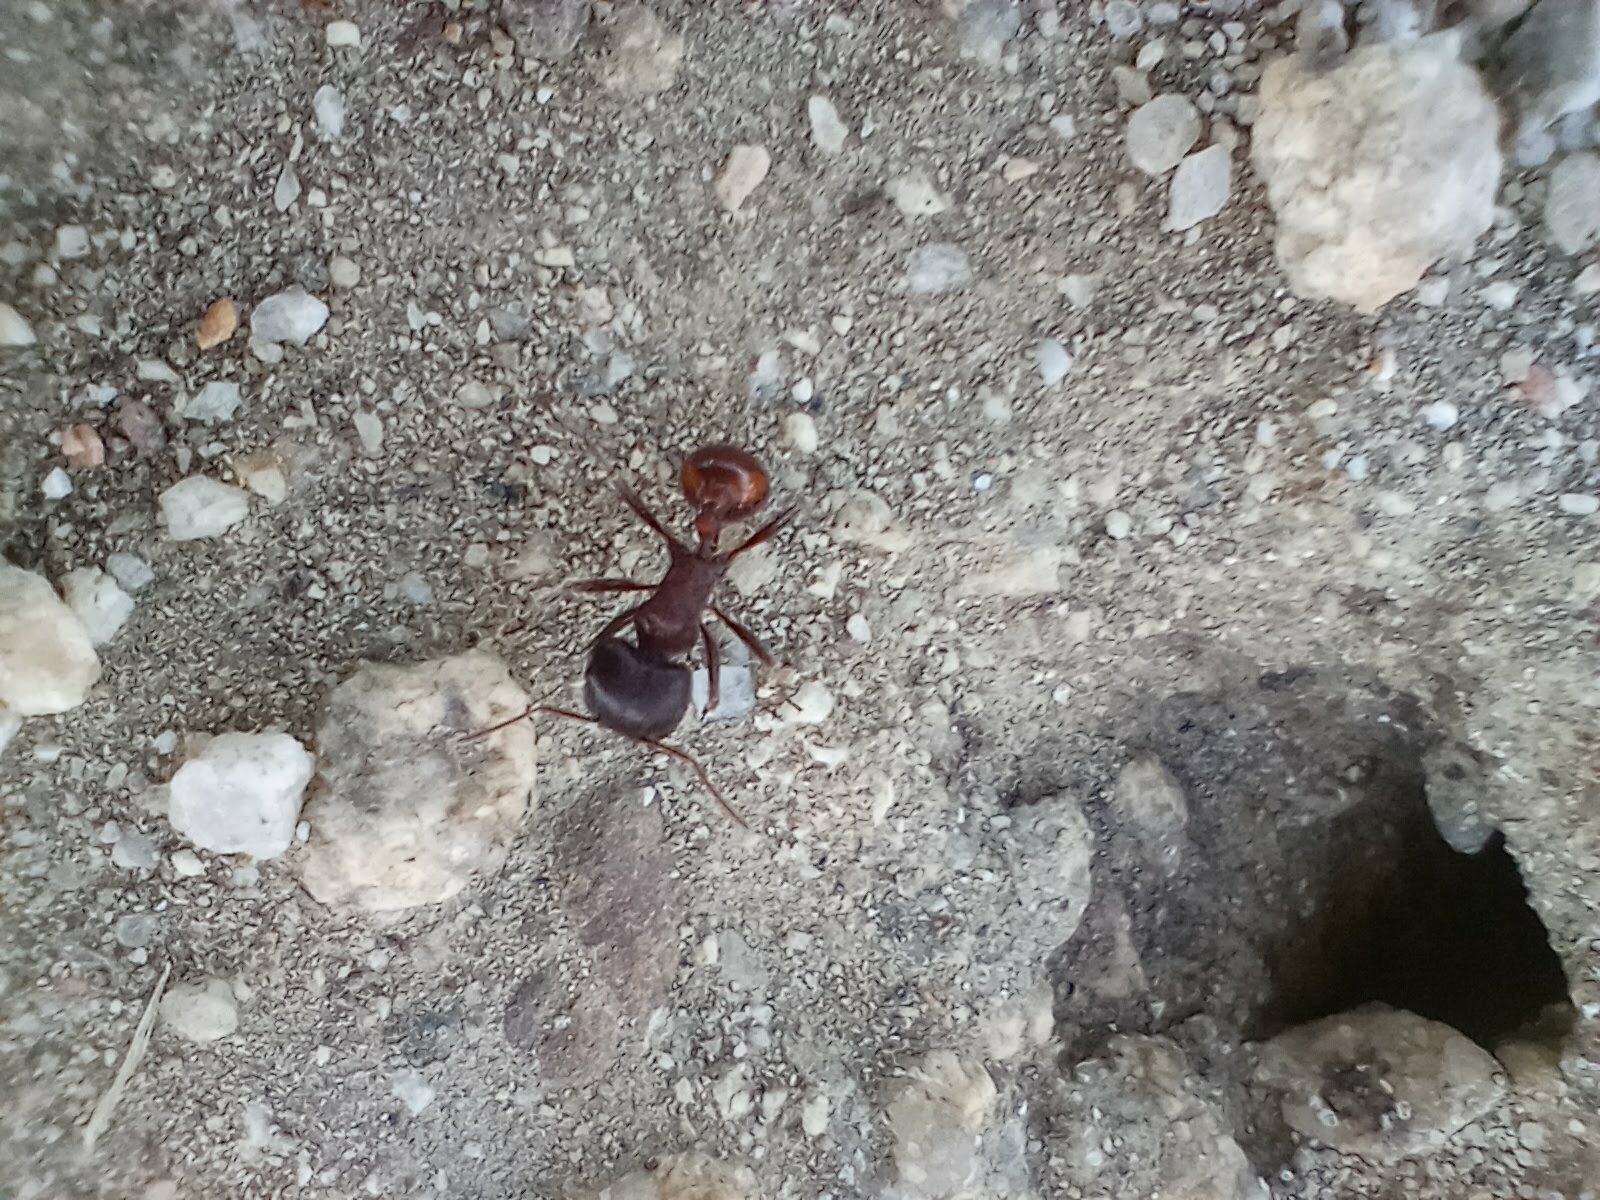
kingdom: Animalia
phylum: Arthropoda
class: Insecta
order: Hymenoptera
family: Formicidae
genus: Pogonomyrmex
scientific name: Pogonomyrmex rugosus
